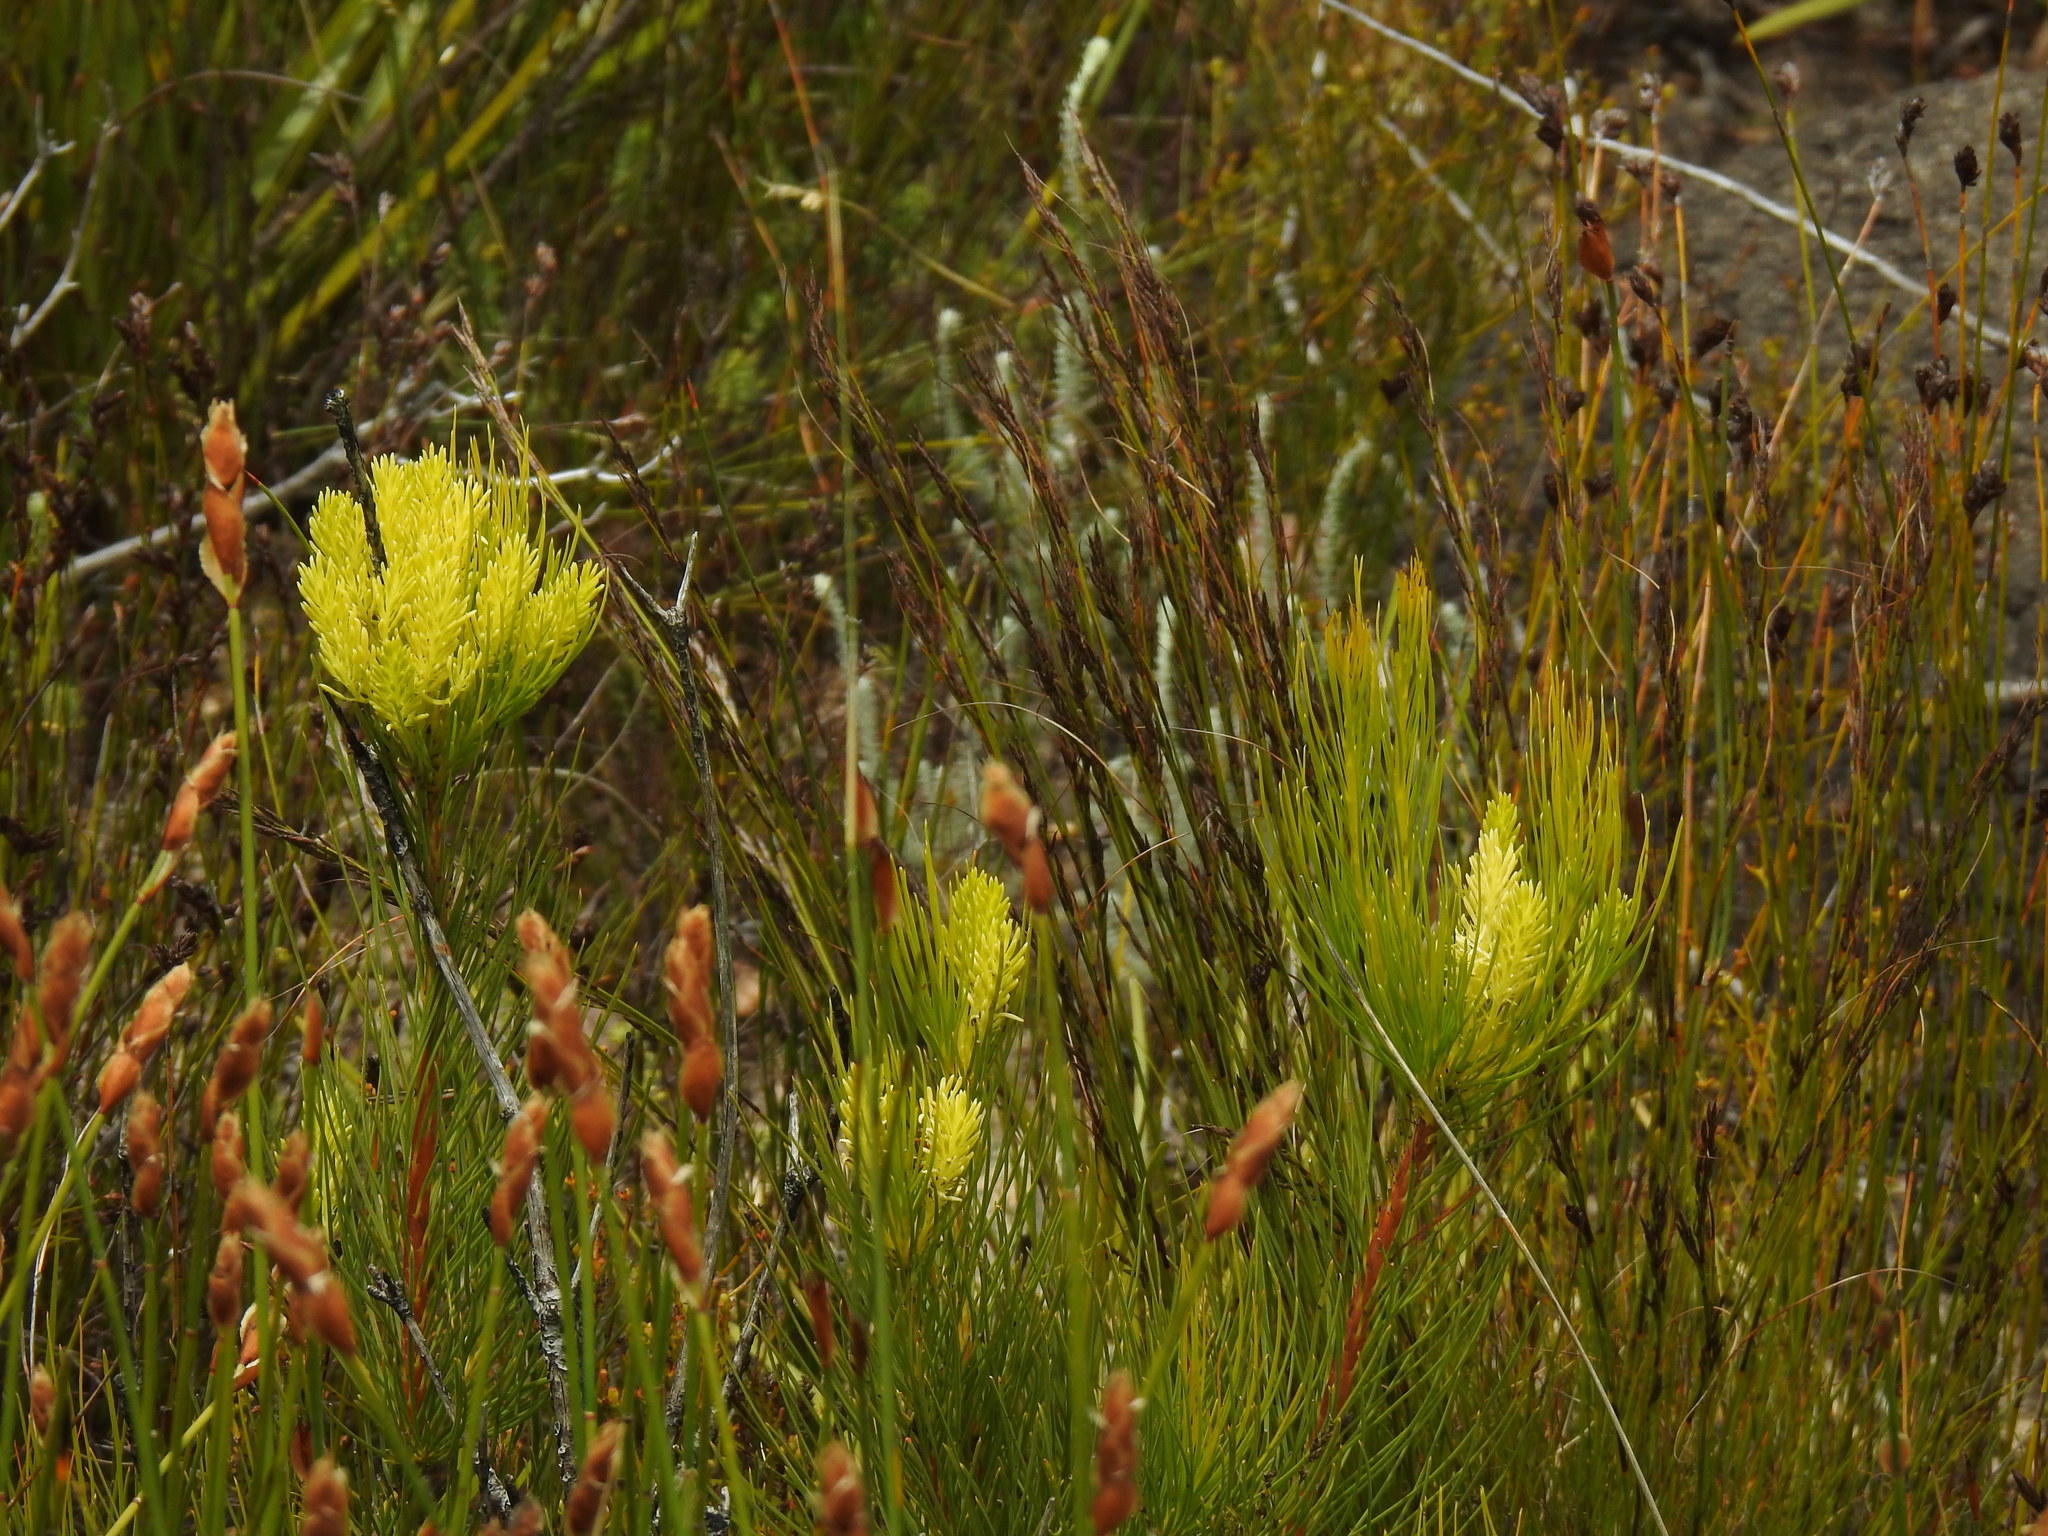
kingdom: Plantae
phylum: Tracheophyta
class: Magnoliopsida
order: Proteales
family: Proteaceae
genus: Aulax
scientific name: Aulax pallasia
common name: Needle-leaf featherbush
